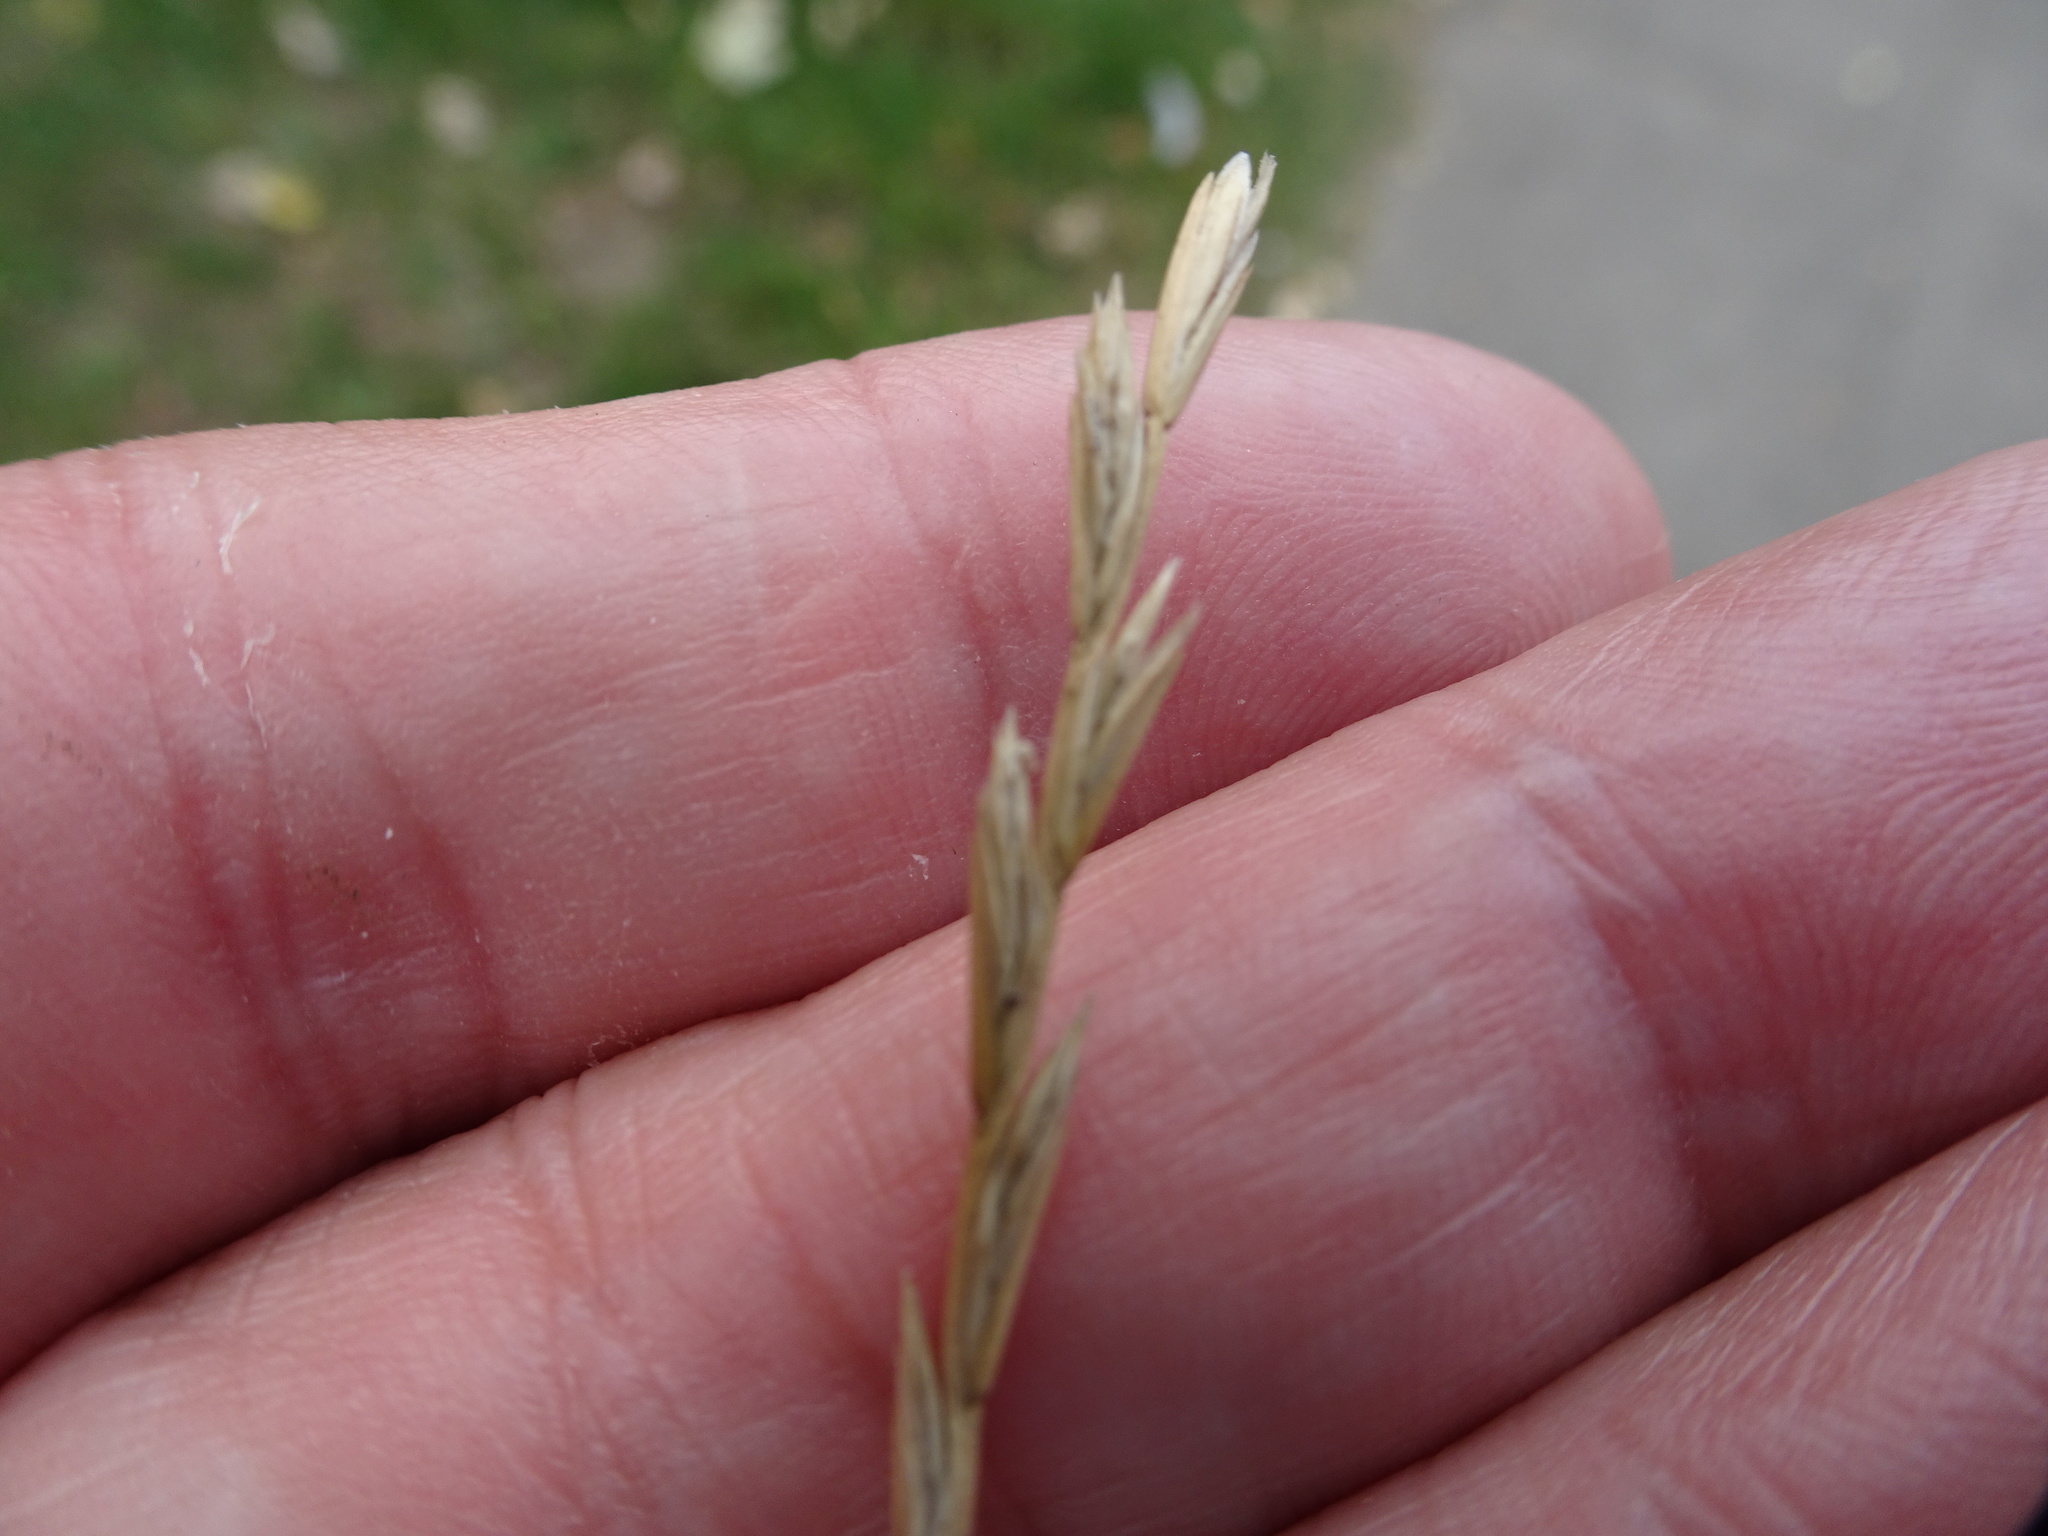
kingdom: Plantae
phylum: Tracheophyta
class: Liliopsida
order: Poales
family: Poaceae
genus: Lolium
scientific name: Lolium perenne
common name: Perennial ryegrass
